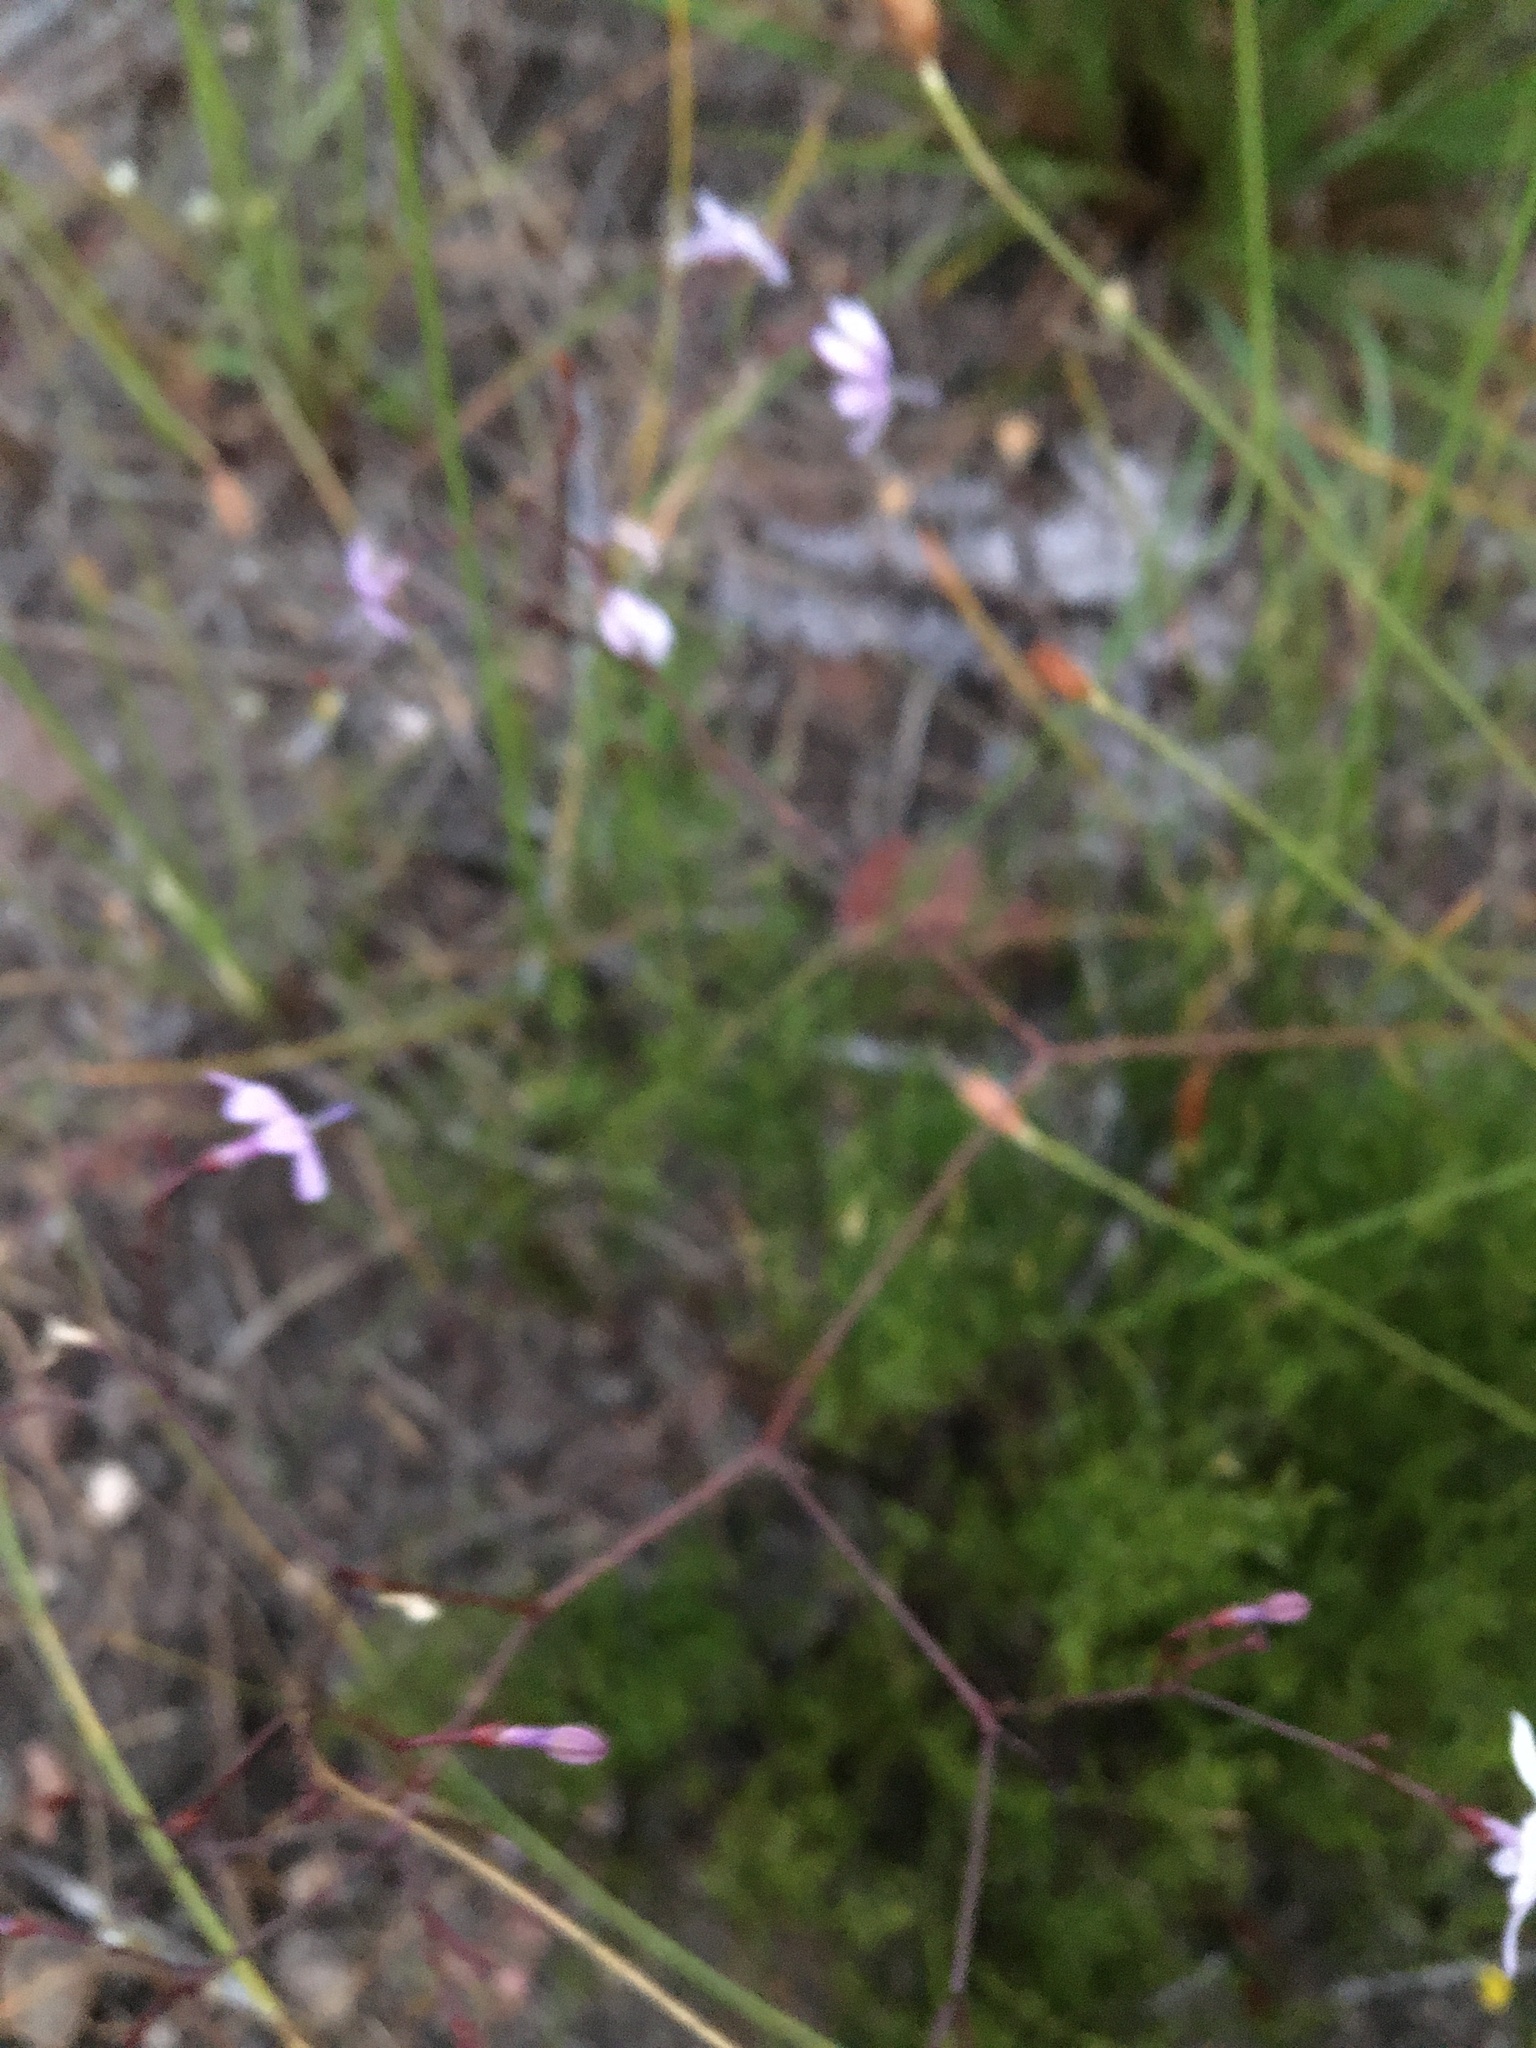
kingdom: Plantae
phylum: Tracheophyta
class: Magnoliopsida
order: Asterales
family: Campanulaceae
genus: Prismatocarpus
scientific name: Prismatocarpus diffusus
